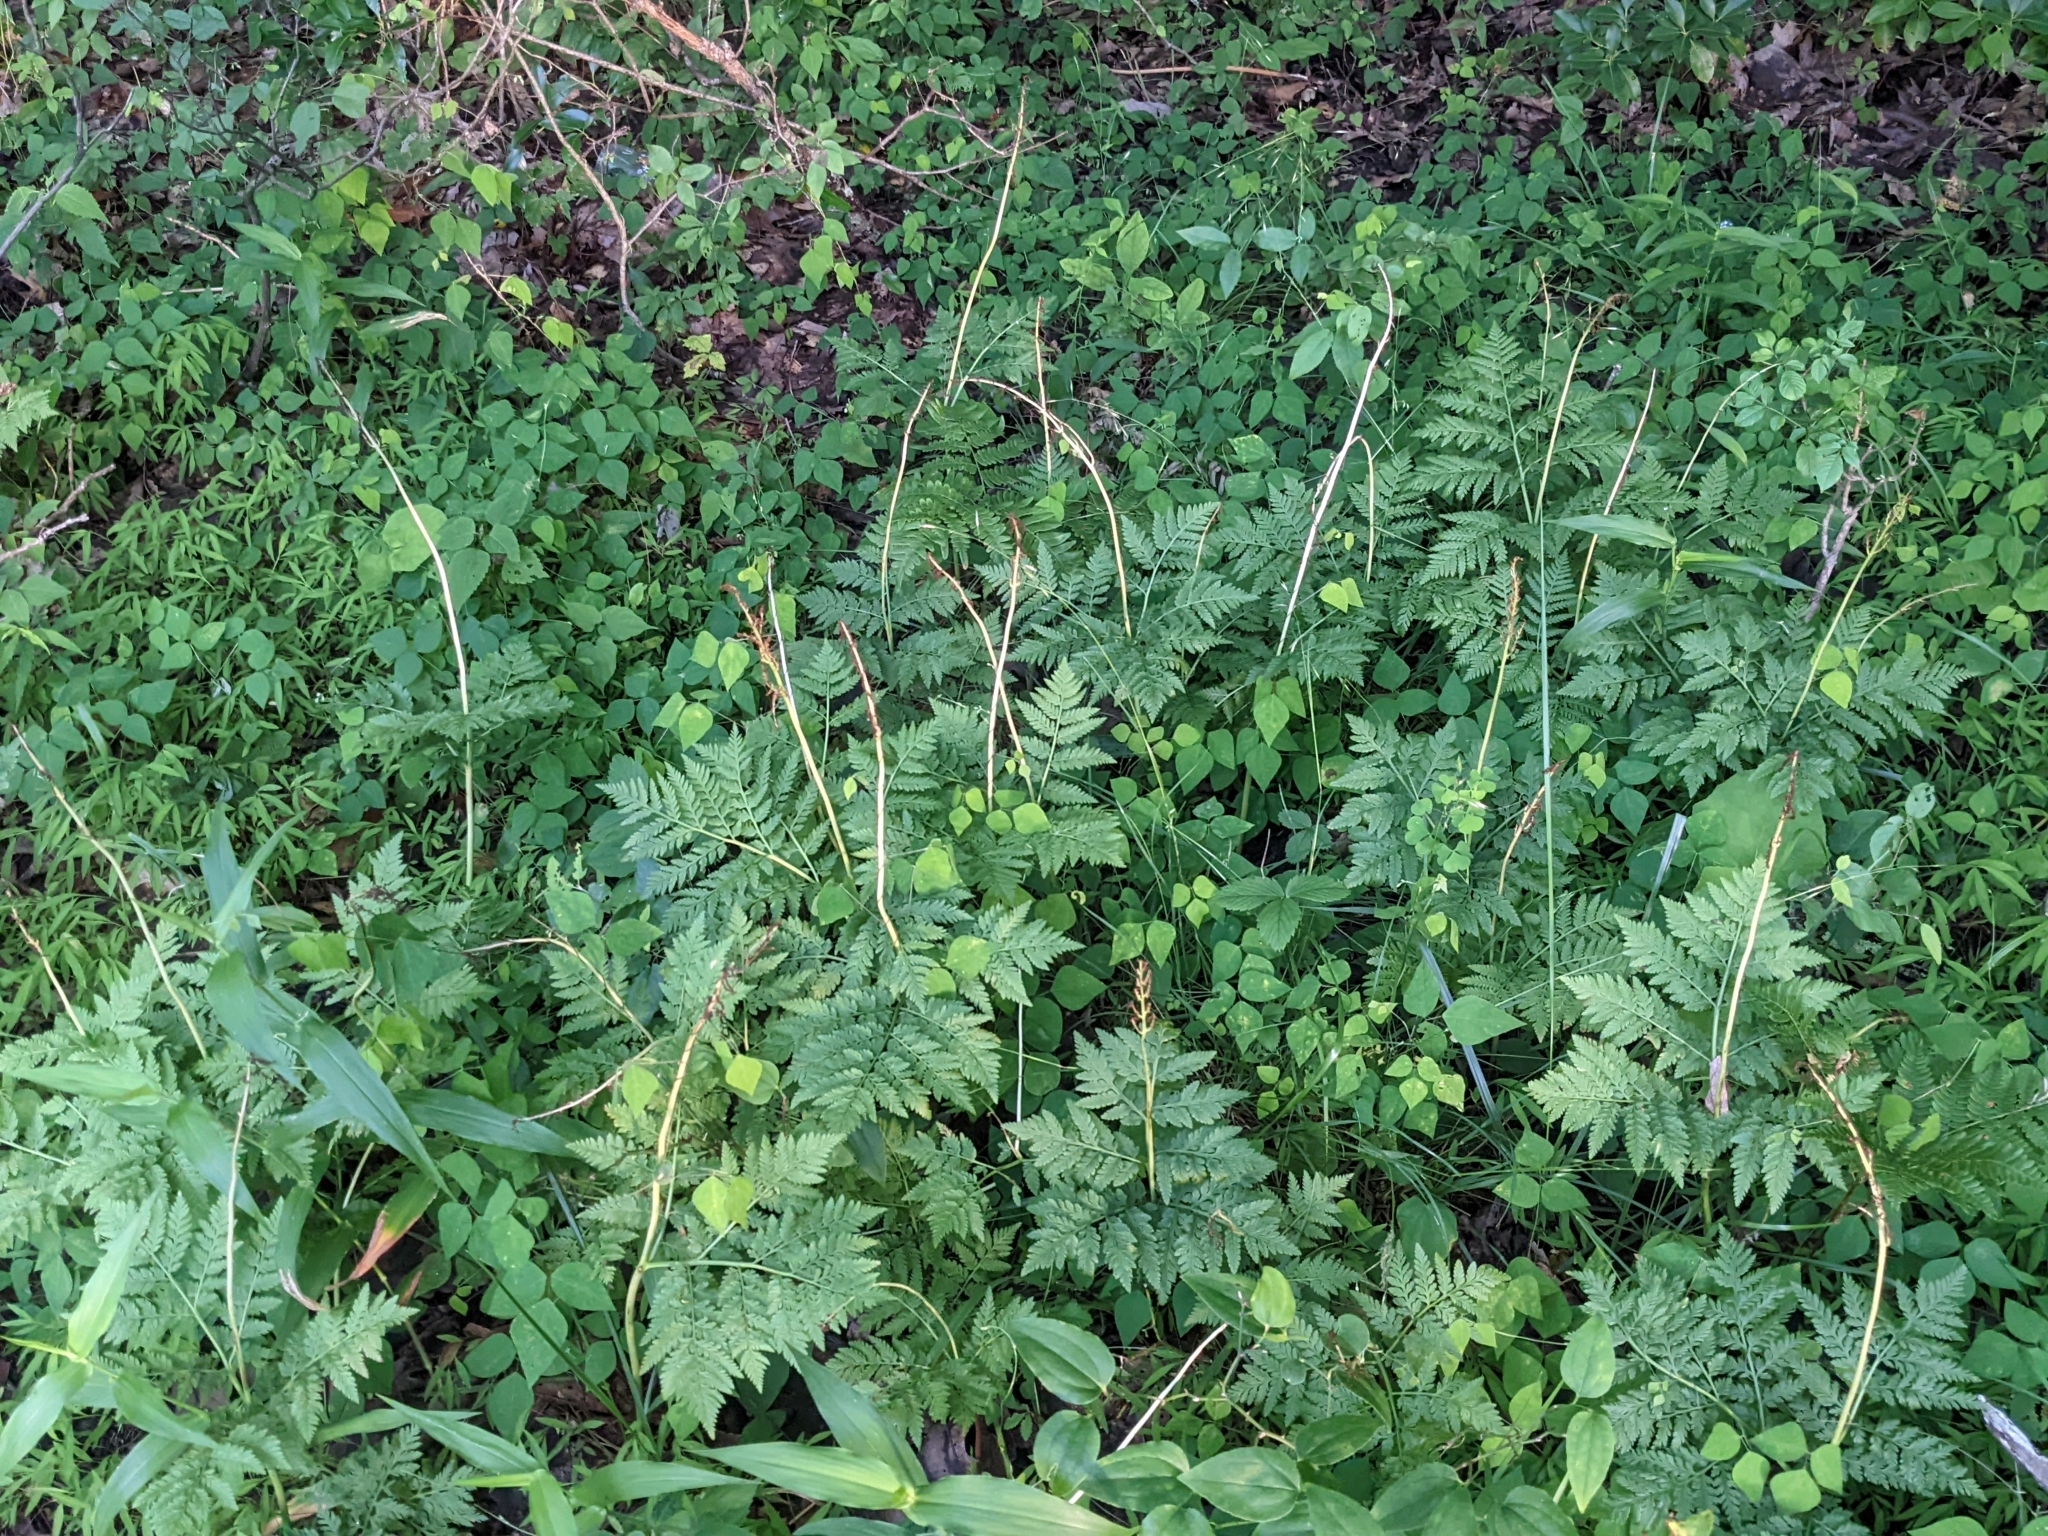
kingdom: Plantae
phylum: Tracheophyta
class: Polypodiopsida
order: Ophioglossales
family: Ophioglossaceae
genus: Botrypus
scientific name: Botrypus virginianus
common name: Common grapefern
